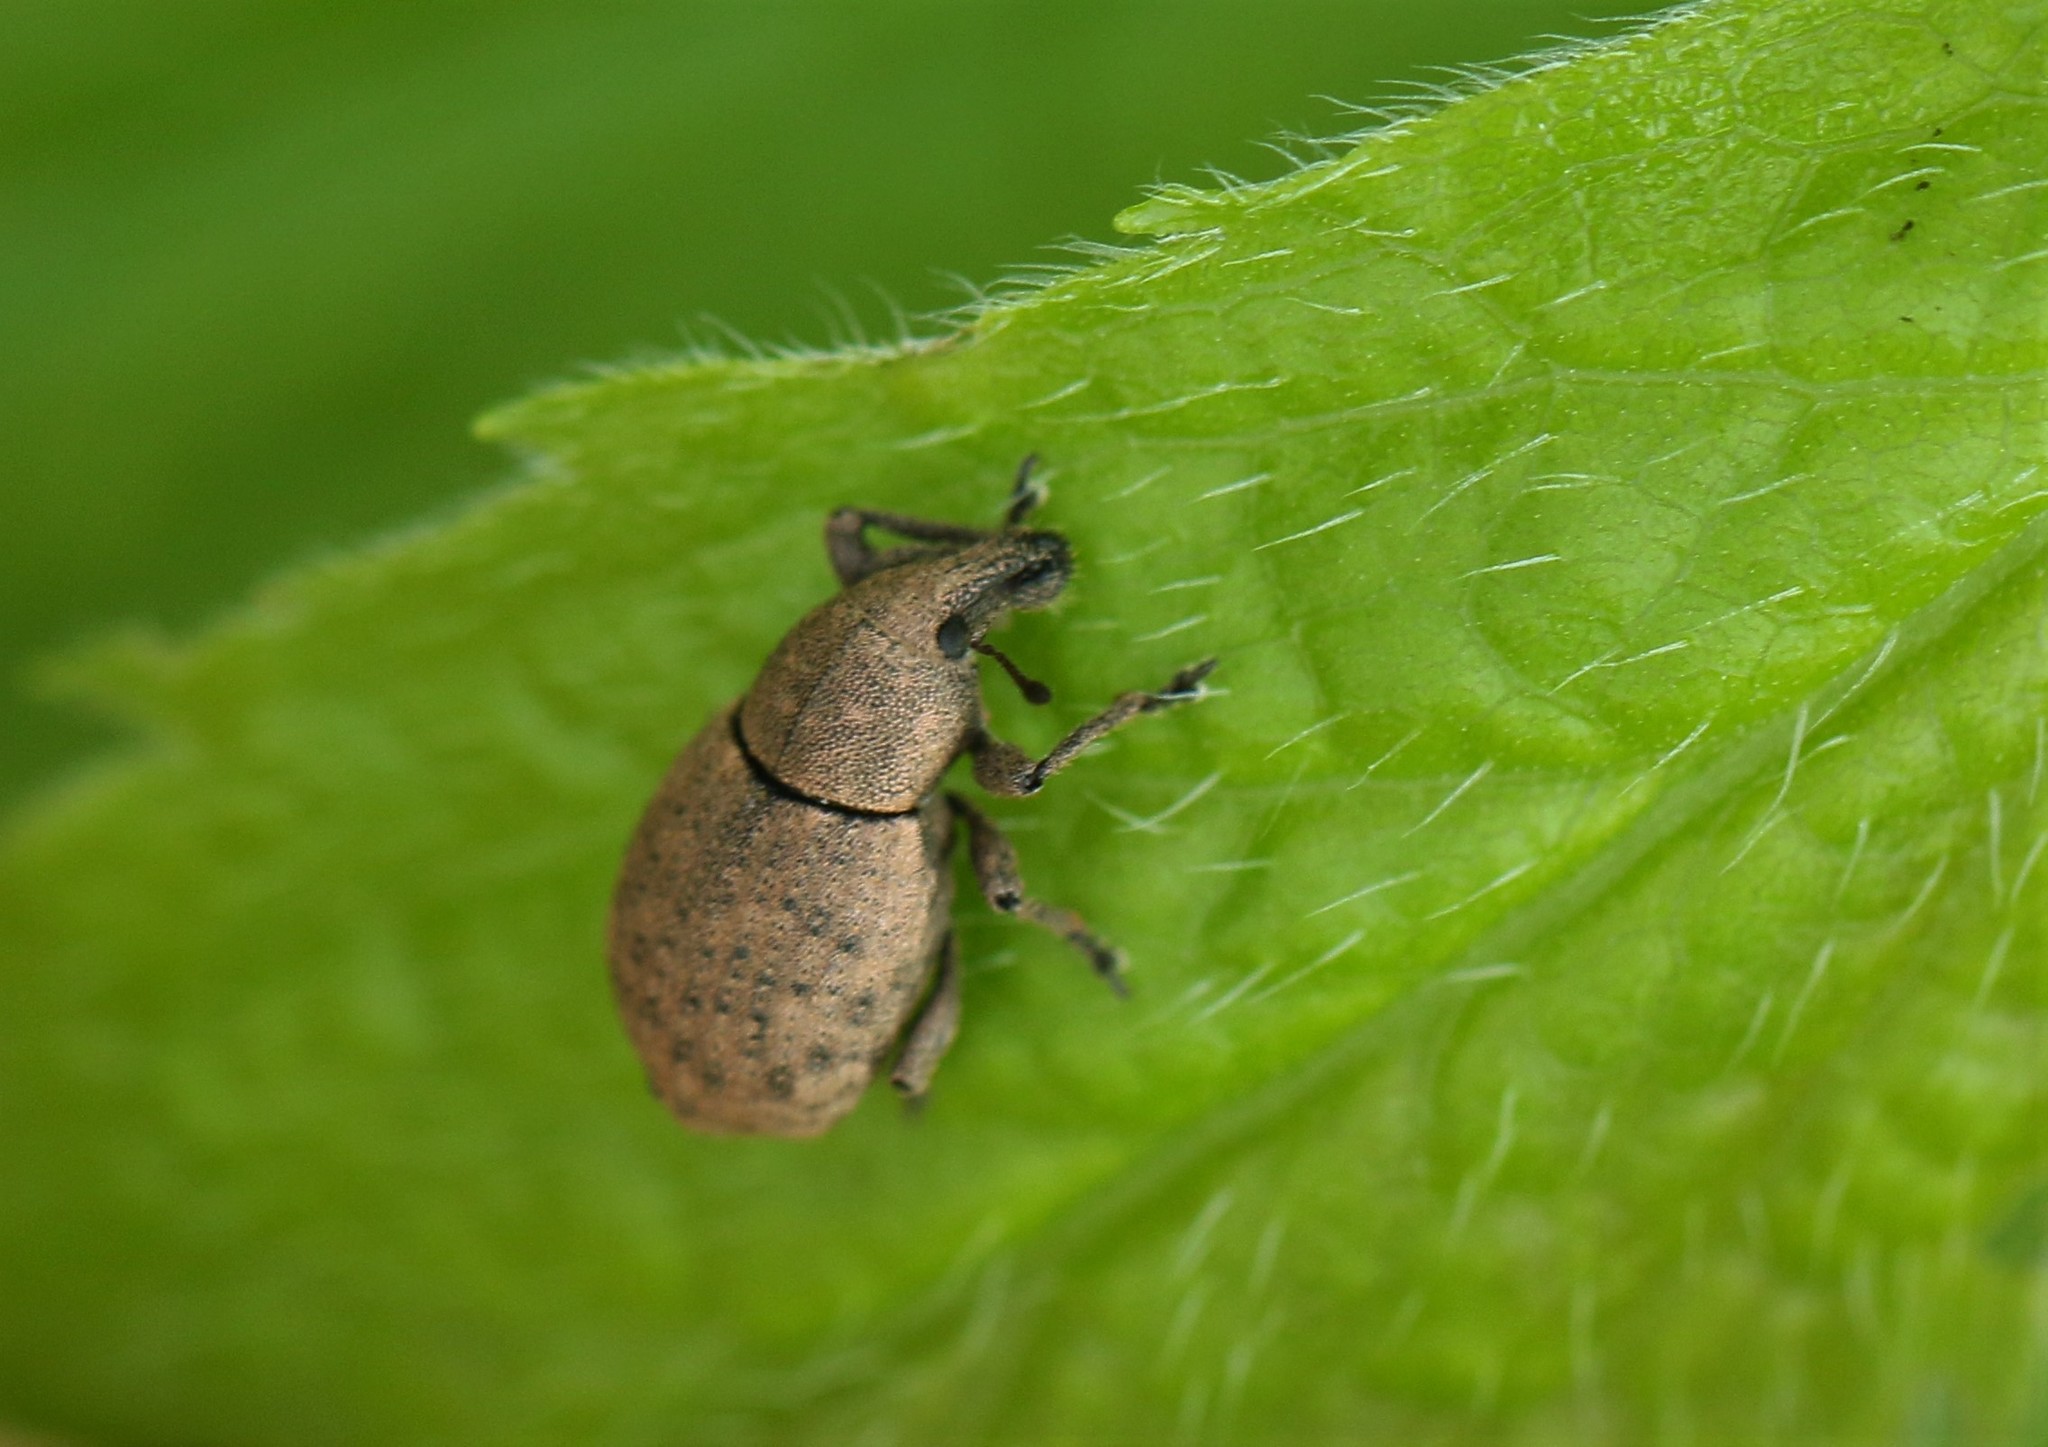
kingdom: Animalia
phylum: Arthropoda
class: Insecta
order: Coleoptera
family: Curculionidae
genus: Tropiphorus
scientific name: Tropiphorus terricola
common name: Weevil
